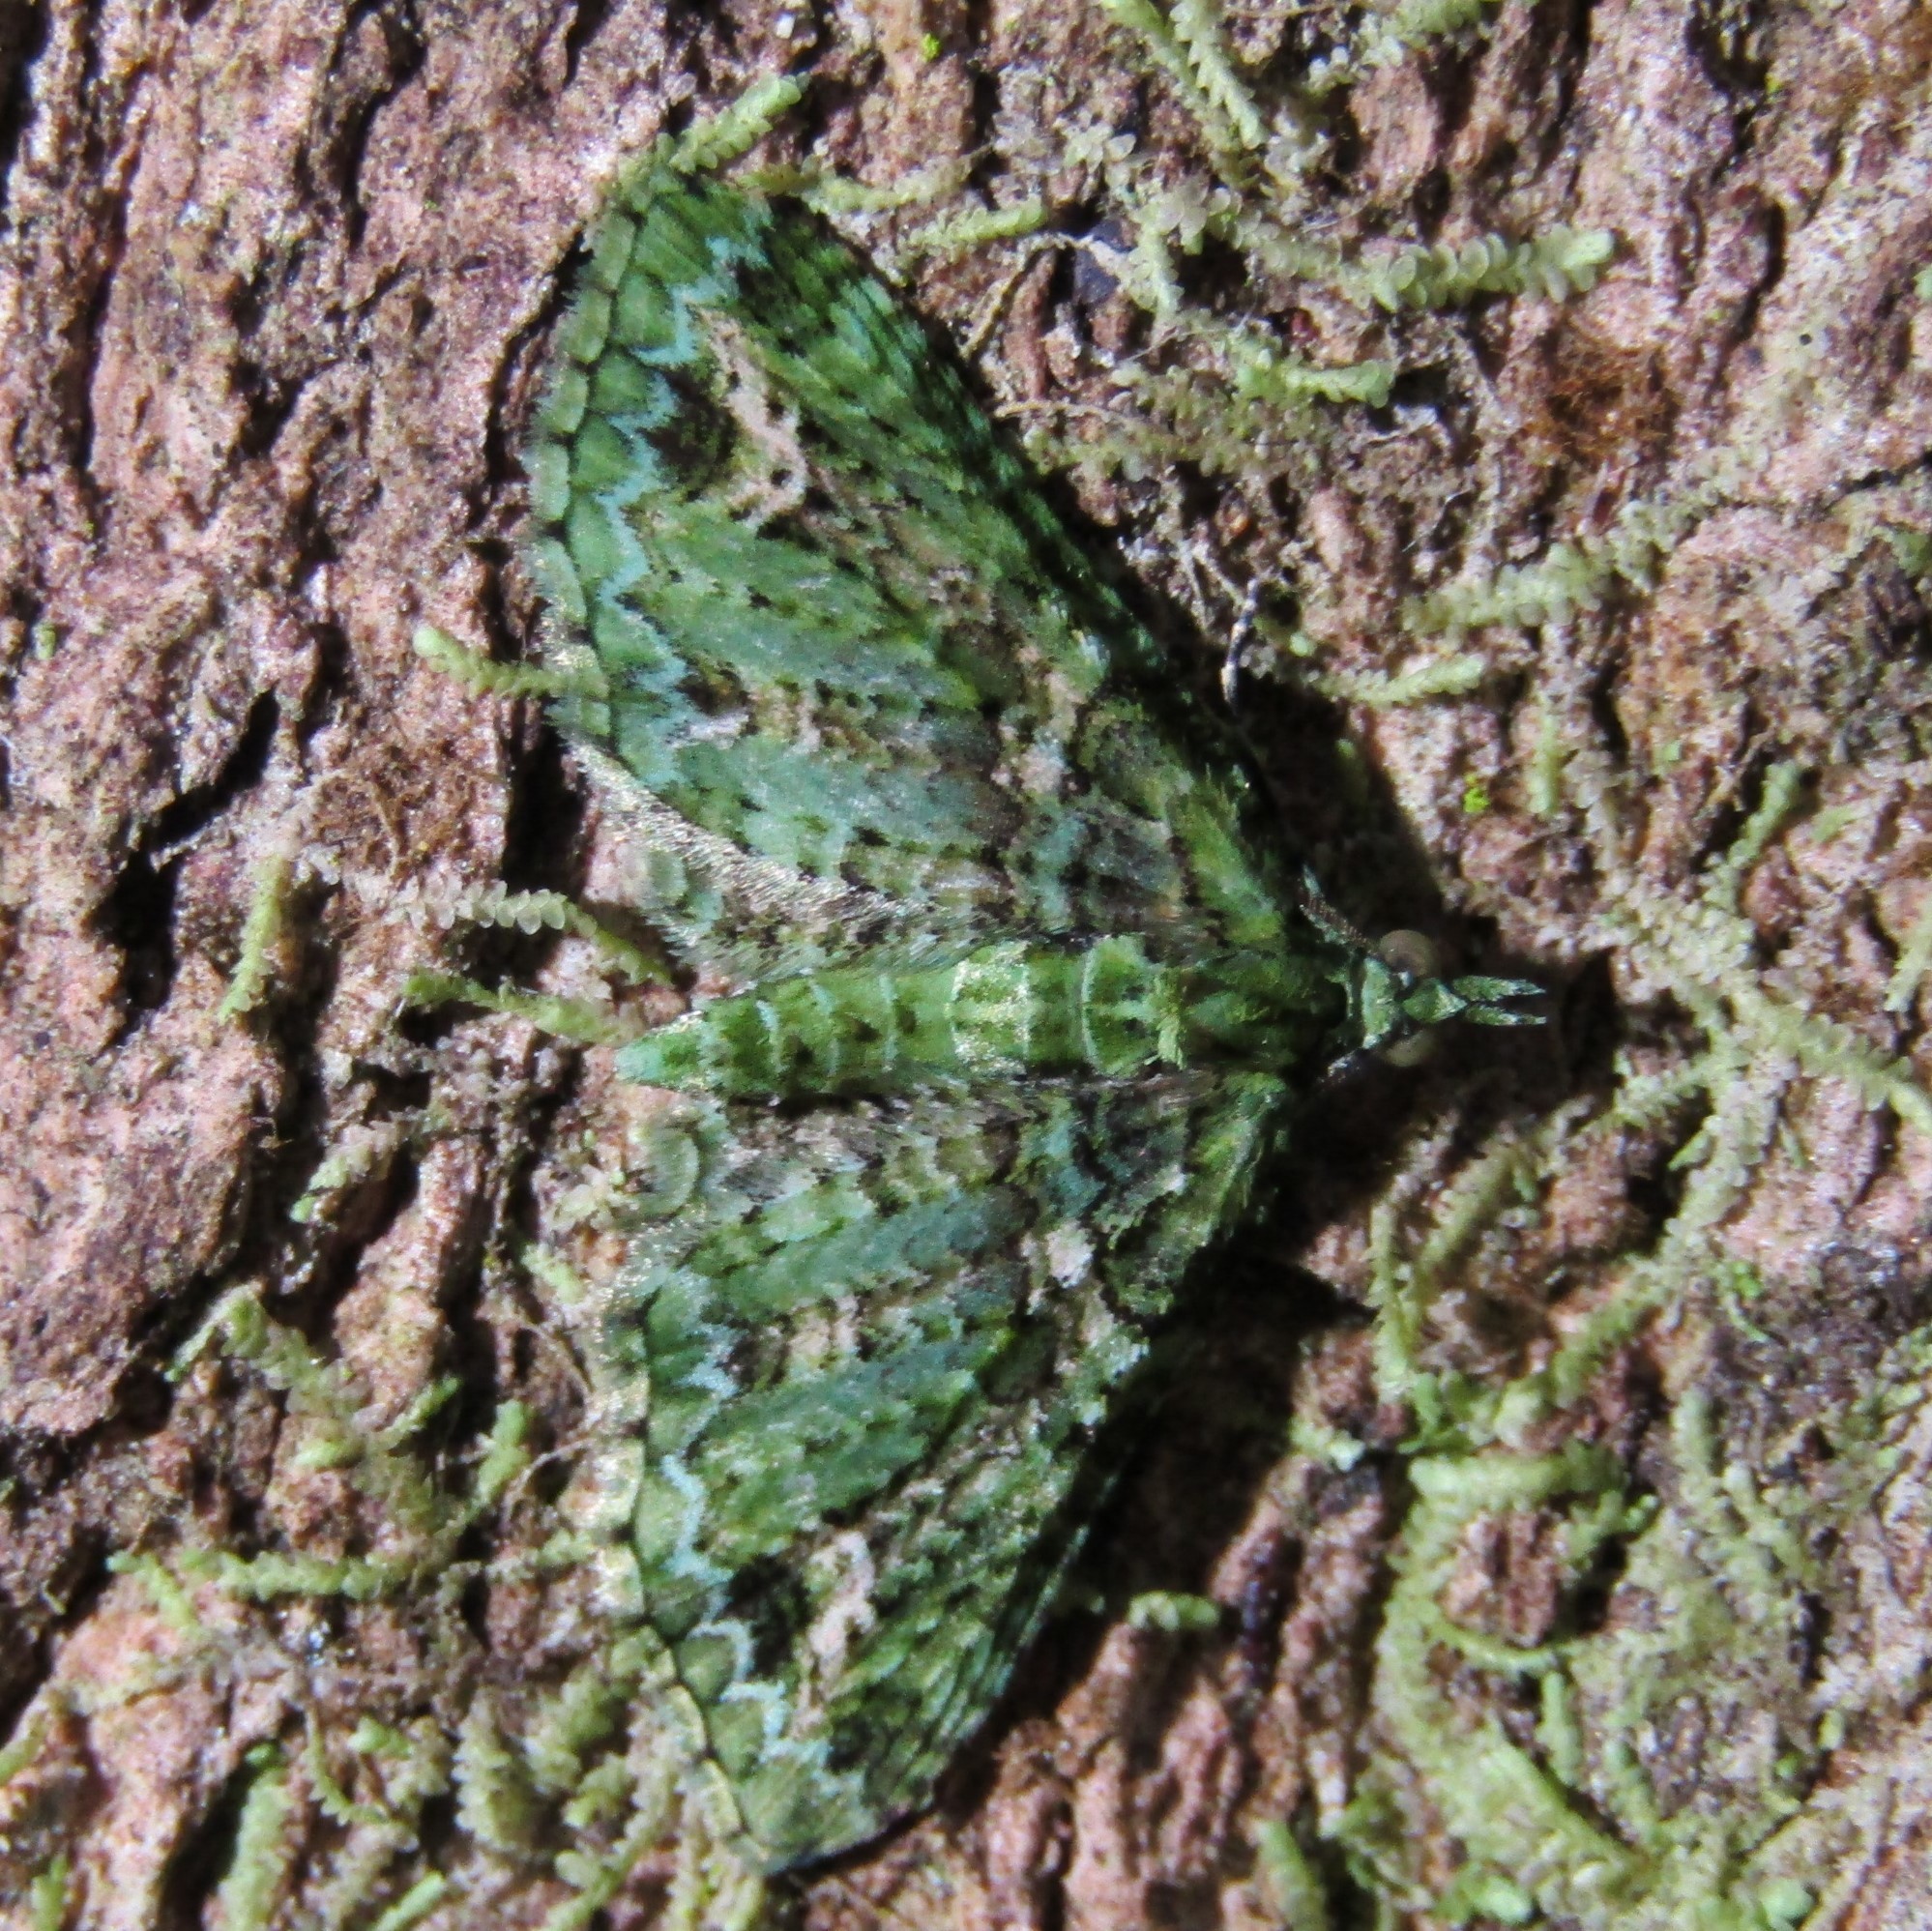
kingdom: Animalia
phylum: Arthropoda
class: Insecta
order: Lepidoptera
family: Geometridae
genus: Pasiphila
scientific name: Pasiphila muscosata
